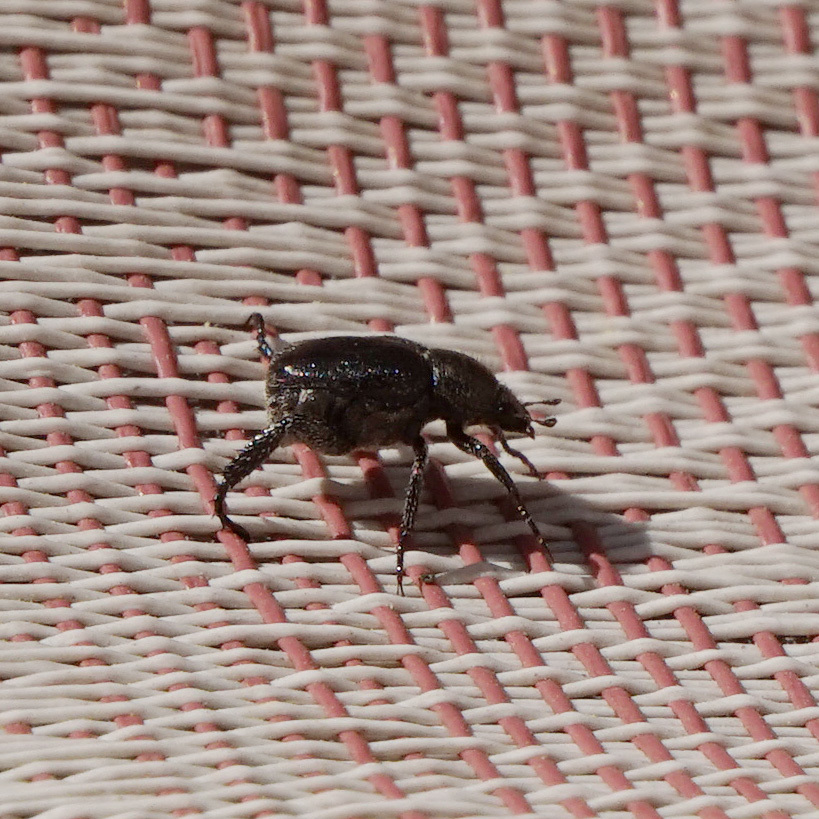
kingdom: Animalia
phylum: Arthropoda
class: Insecta
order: Coleoptera
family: Scarabaeidae
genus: Exomala
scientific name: Exomala orientalis
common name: Oriental beetle
